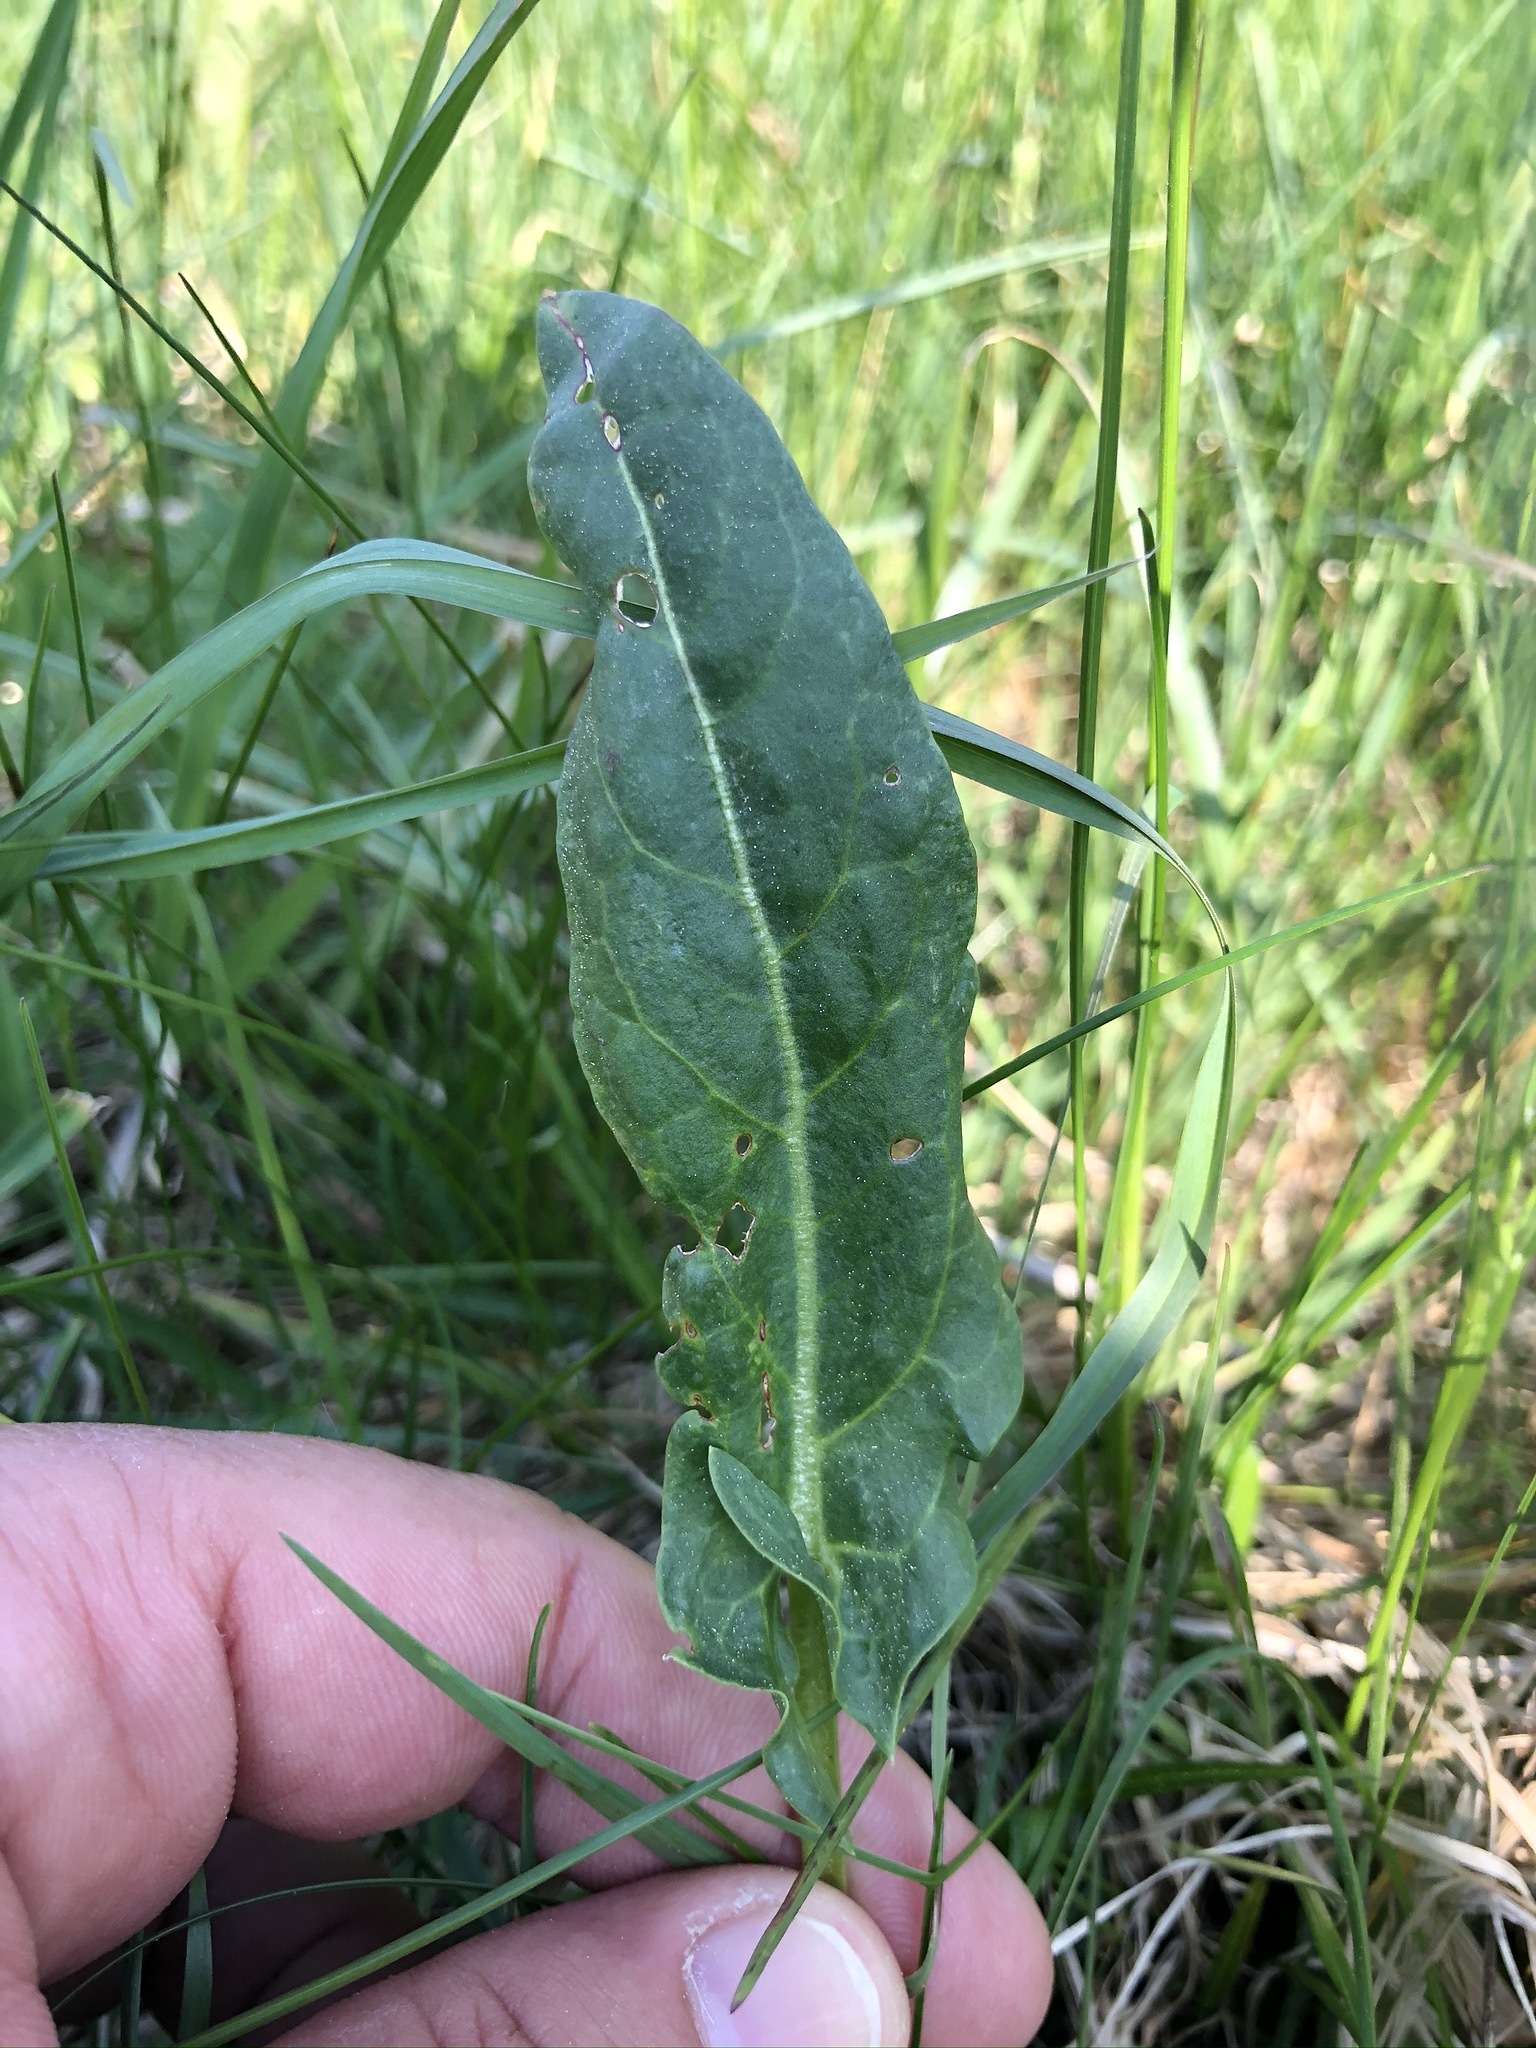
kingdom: Plantae
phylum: Tracheophyta
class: Magnoliopsida
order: Caryophyllales
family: Polygonaceae
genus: Rumex
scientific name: Rumex acetosa
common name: Garden sorrel
